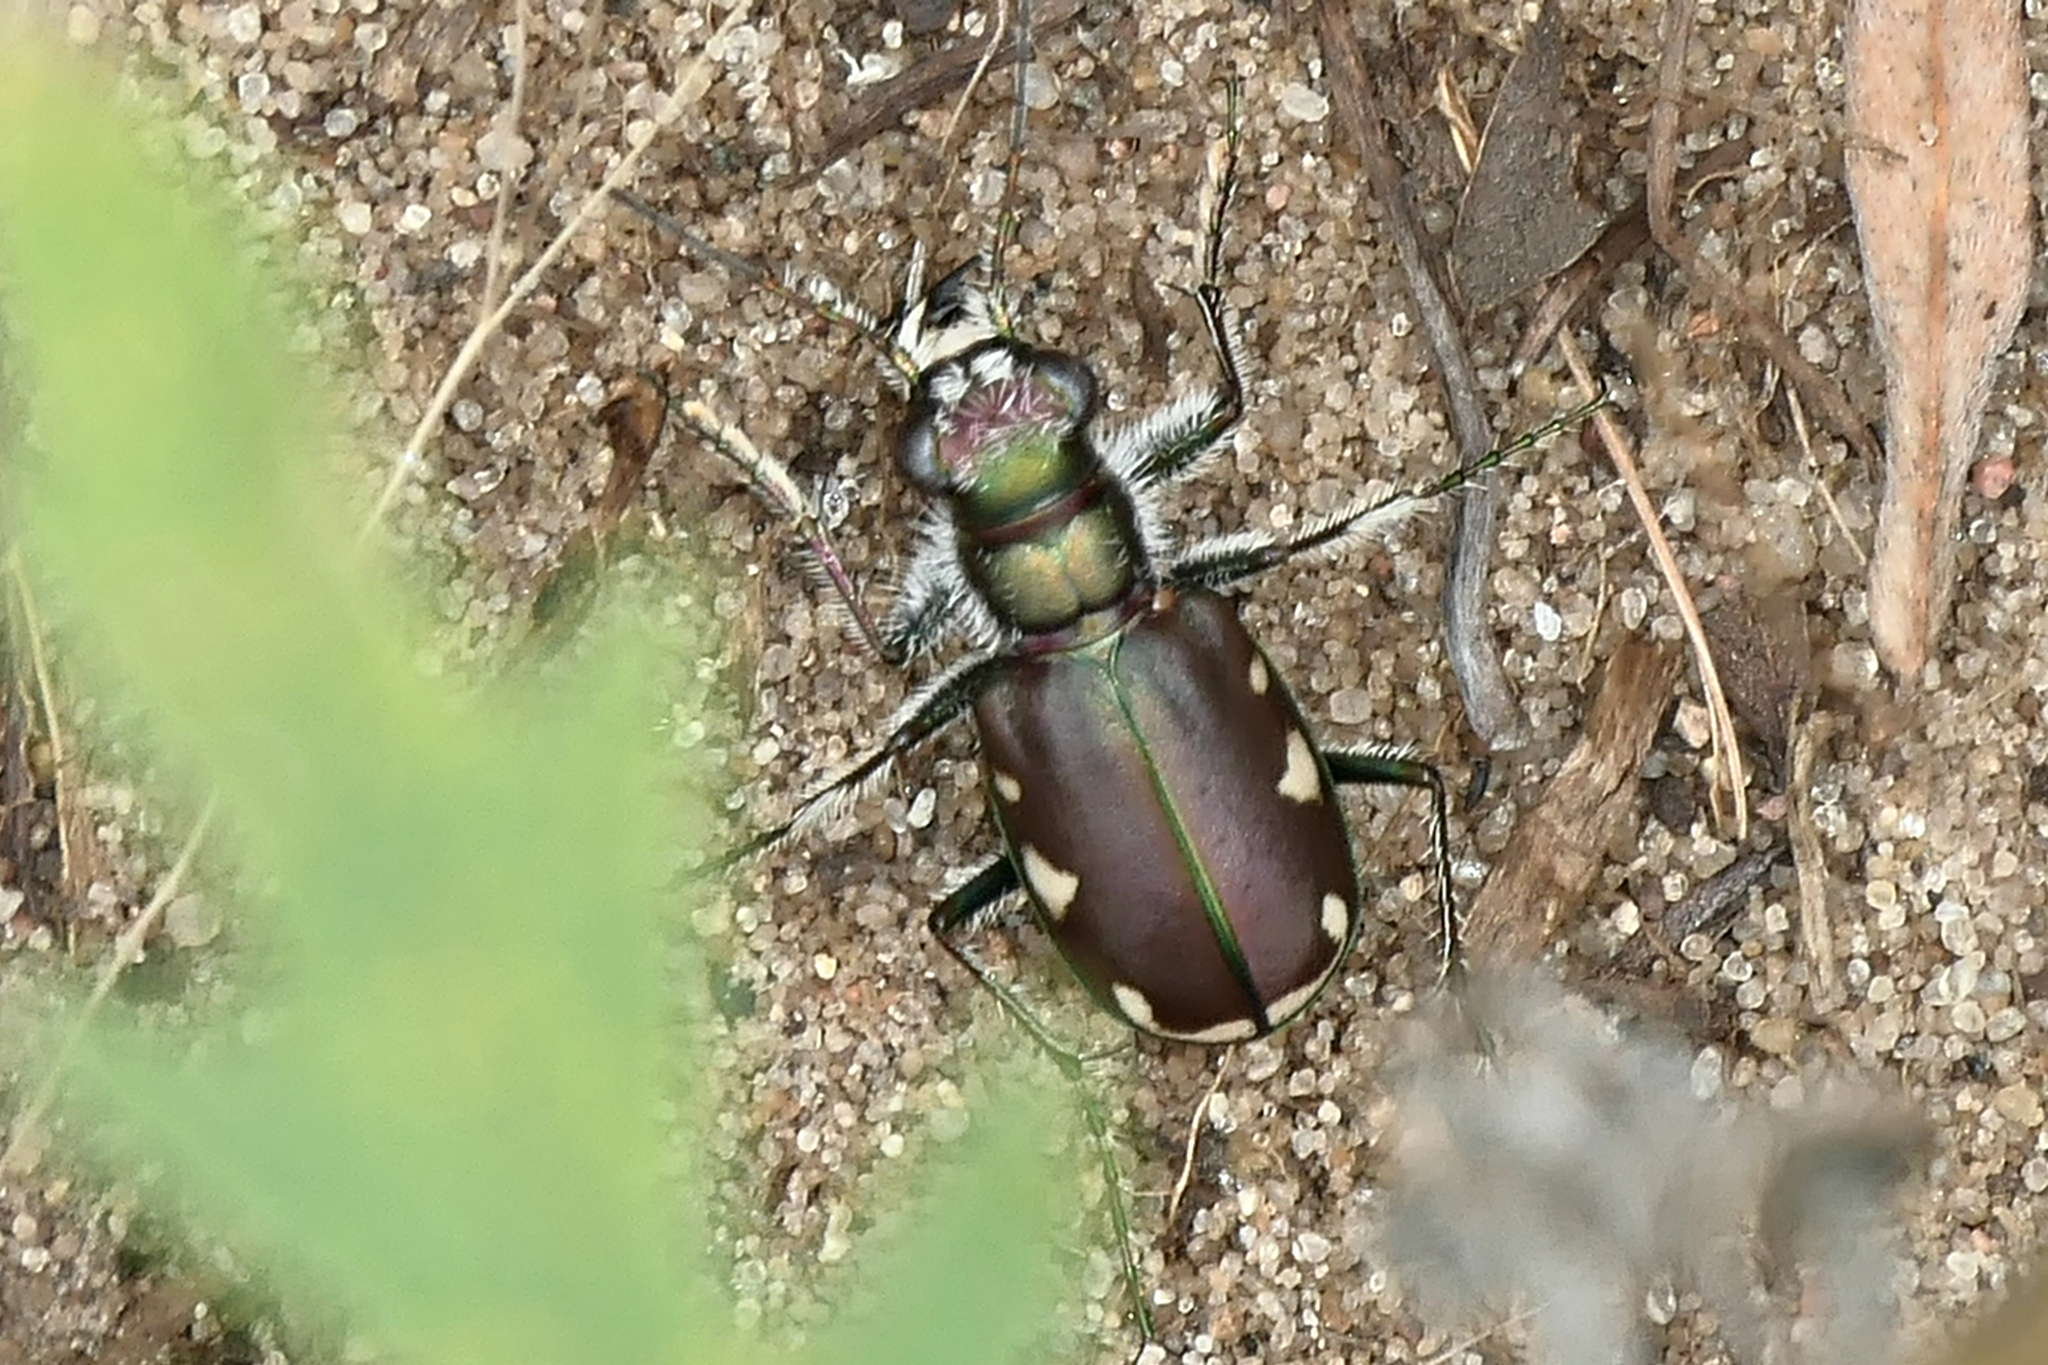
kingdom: Animalia
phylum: Arthropoda
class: Insecta
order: Coleoptera
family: Carabidae
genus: Cicindela
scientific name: Cicindela scutellaris
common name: Festive tiger beetle
